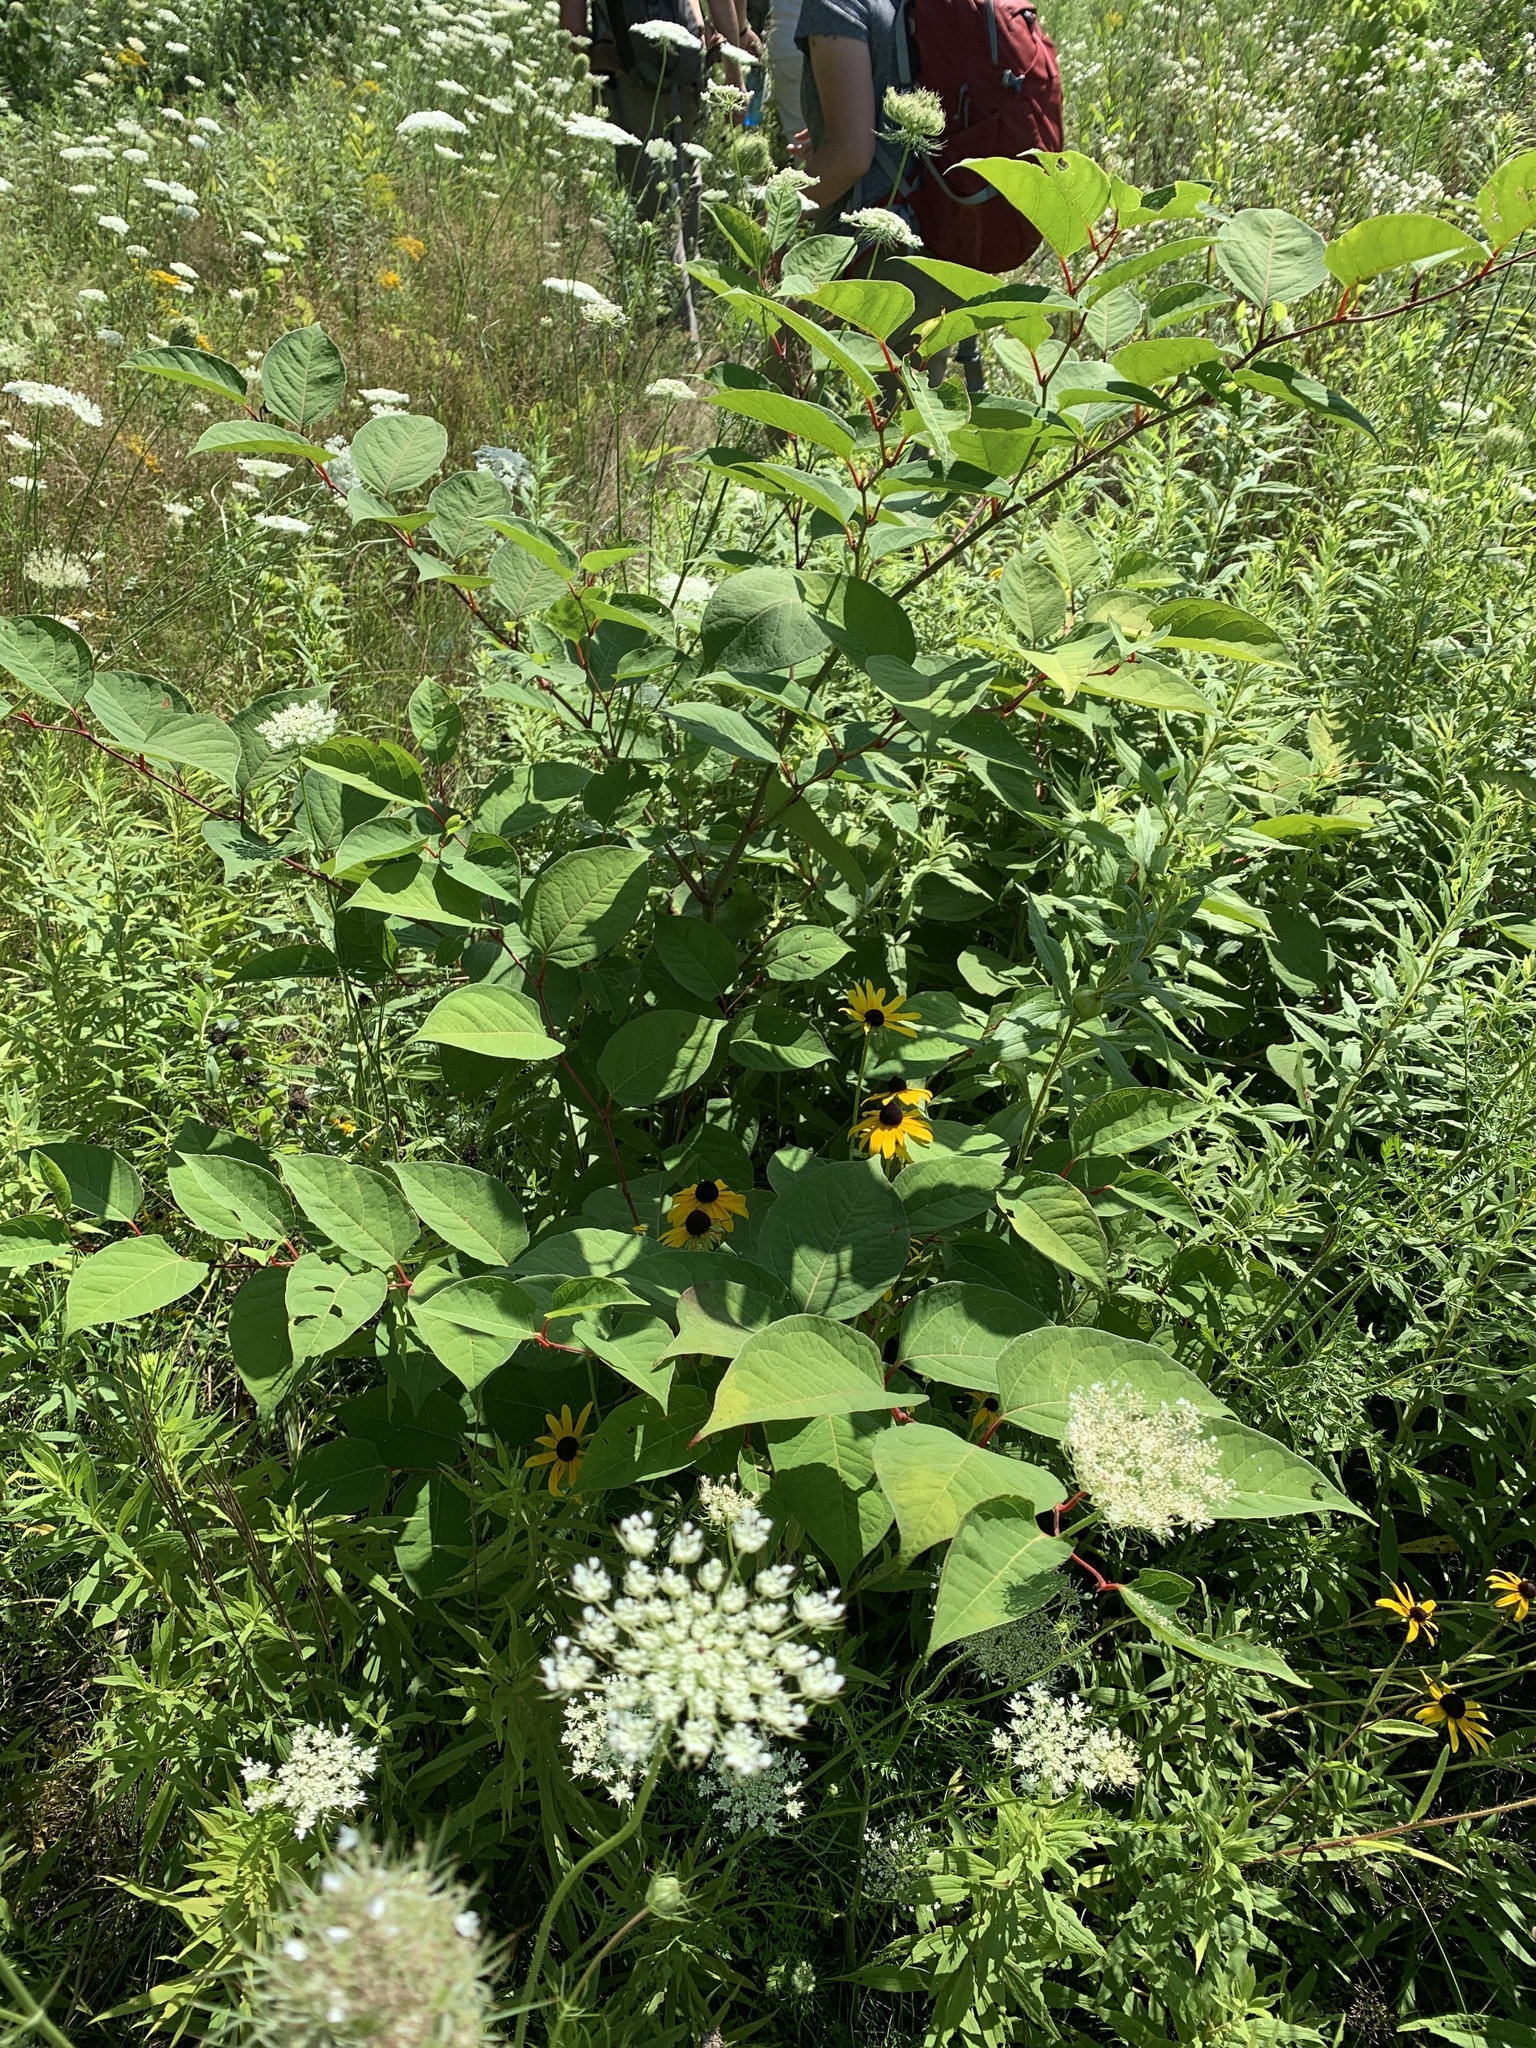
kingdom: Plantae
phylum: Tracheophyta
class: Magnoliopsida
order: Caryophyllales
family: Polygonaceae
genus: Reynoutria
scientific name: Reynoutria japonica
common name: Japanese knotweed
